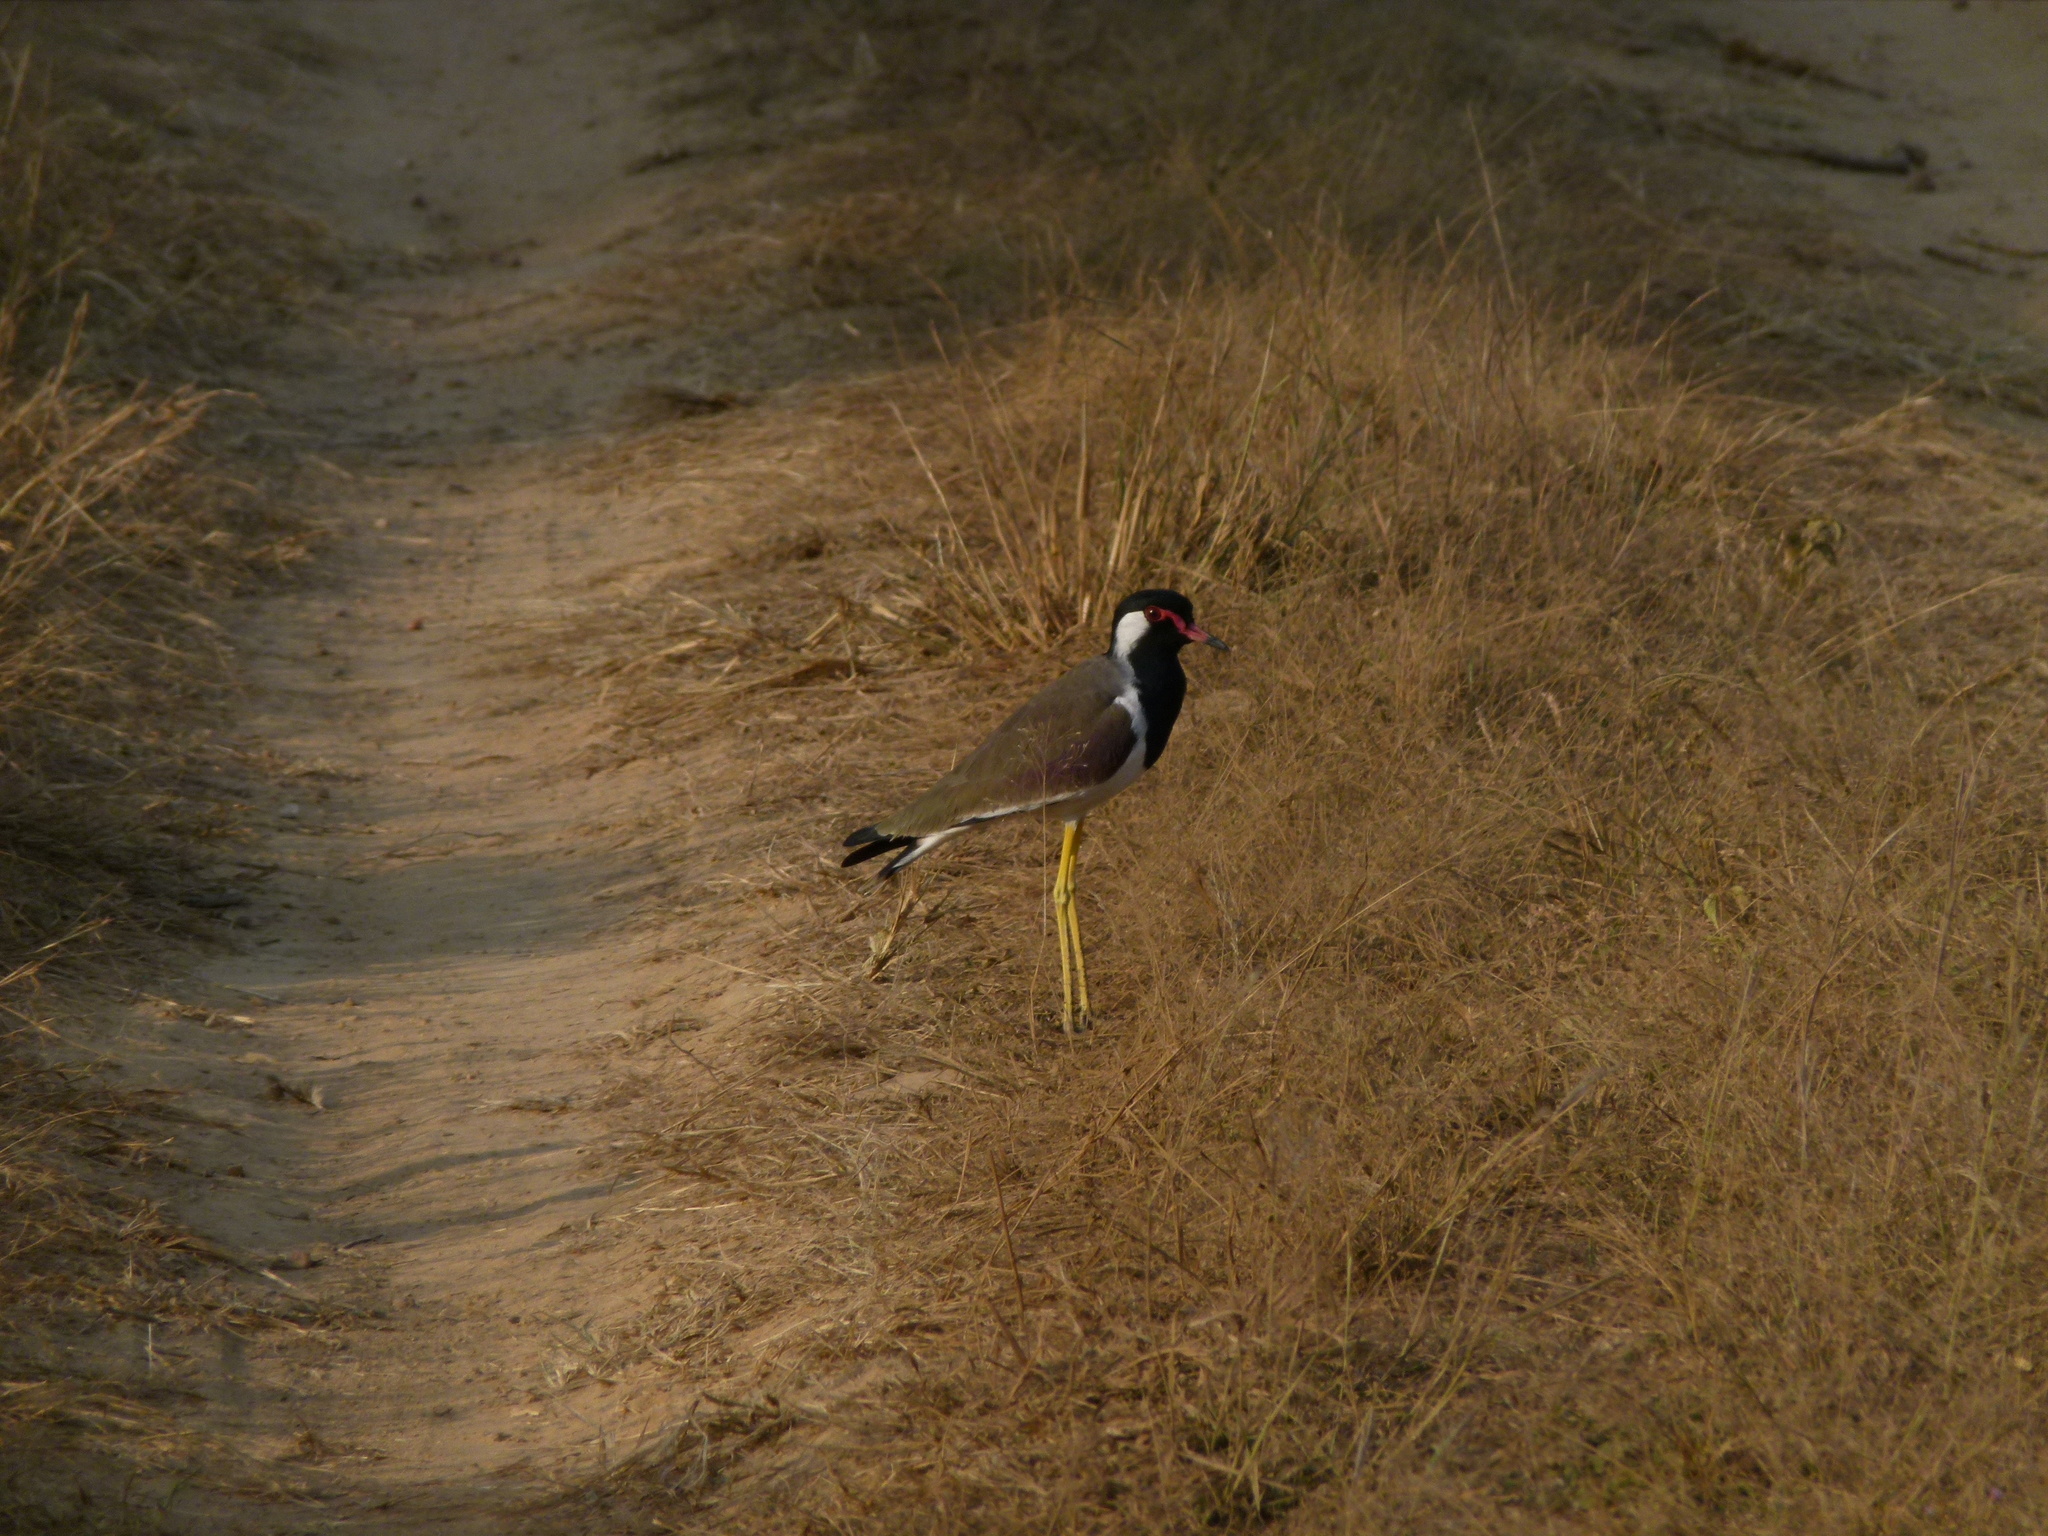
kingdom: Animalia
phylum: Chordata
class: Aves
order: Charadriiformes
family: Charadriidae
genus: Vanellus
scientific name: Vanellus indicus
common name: Red-wattled lapwing
